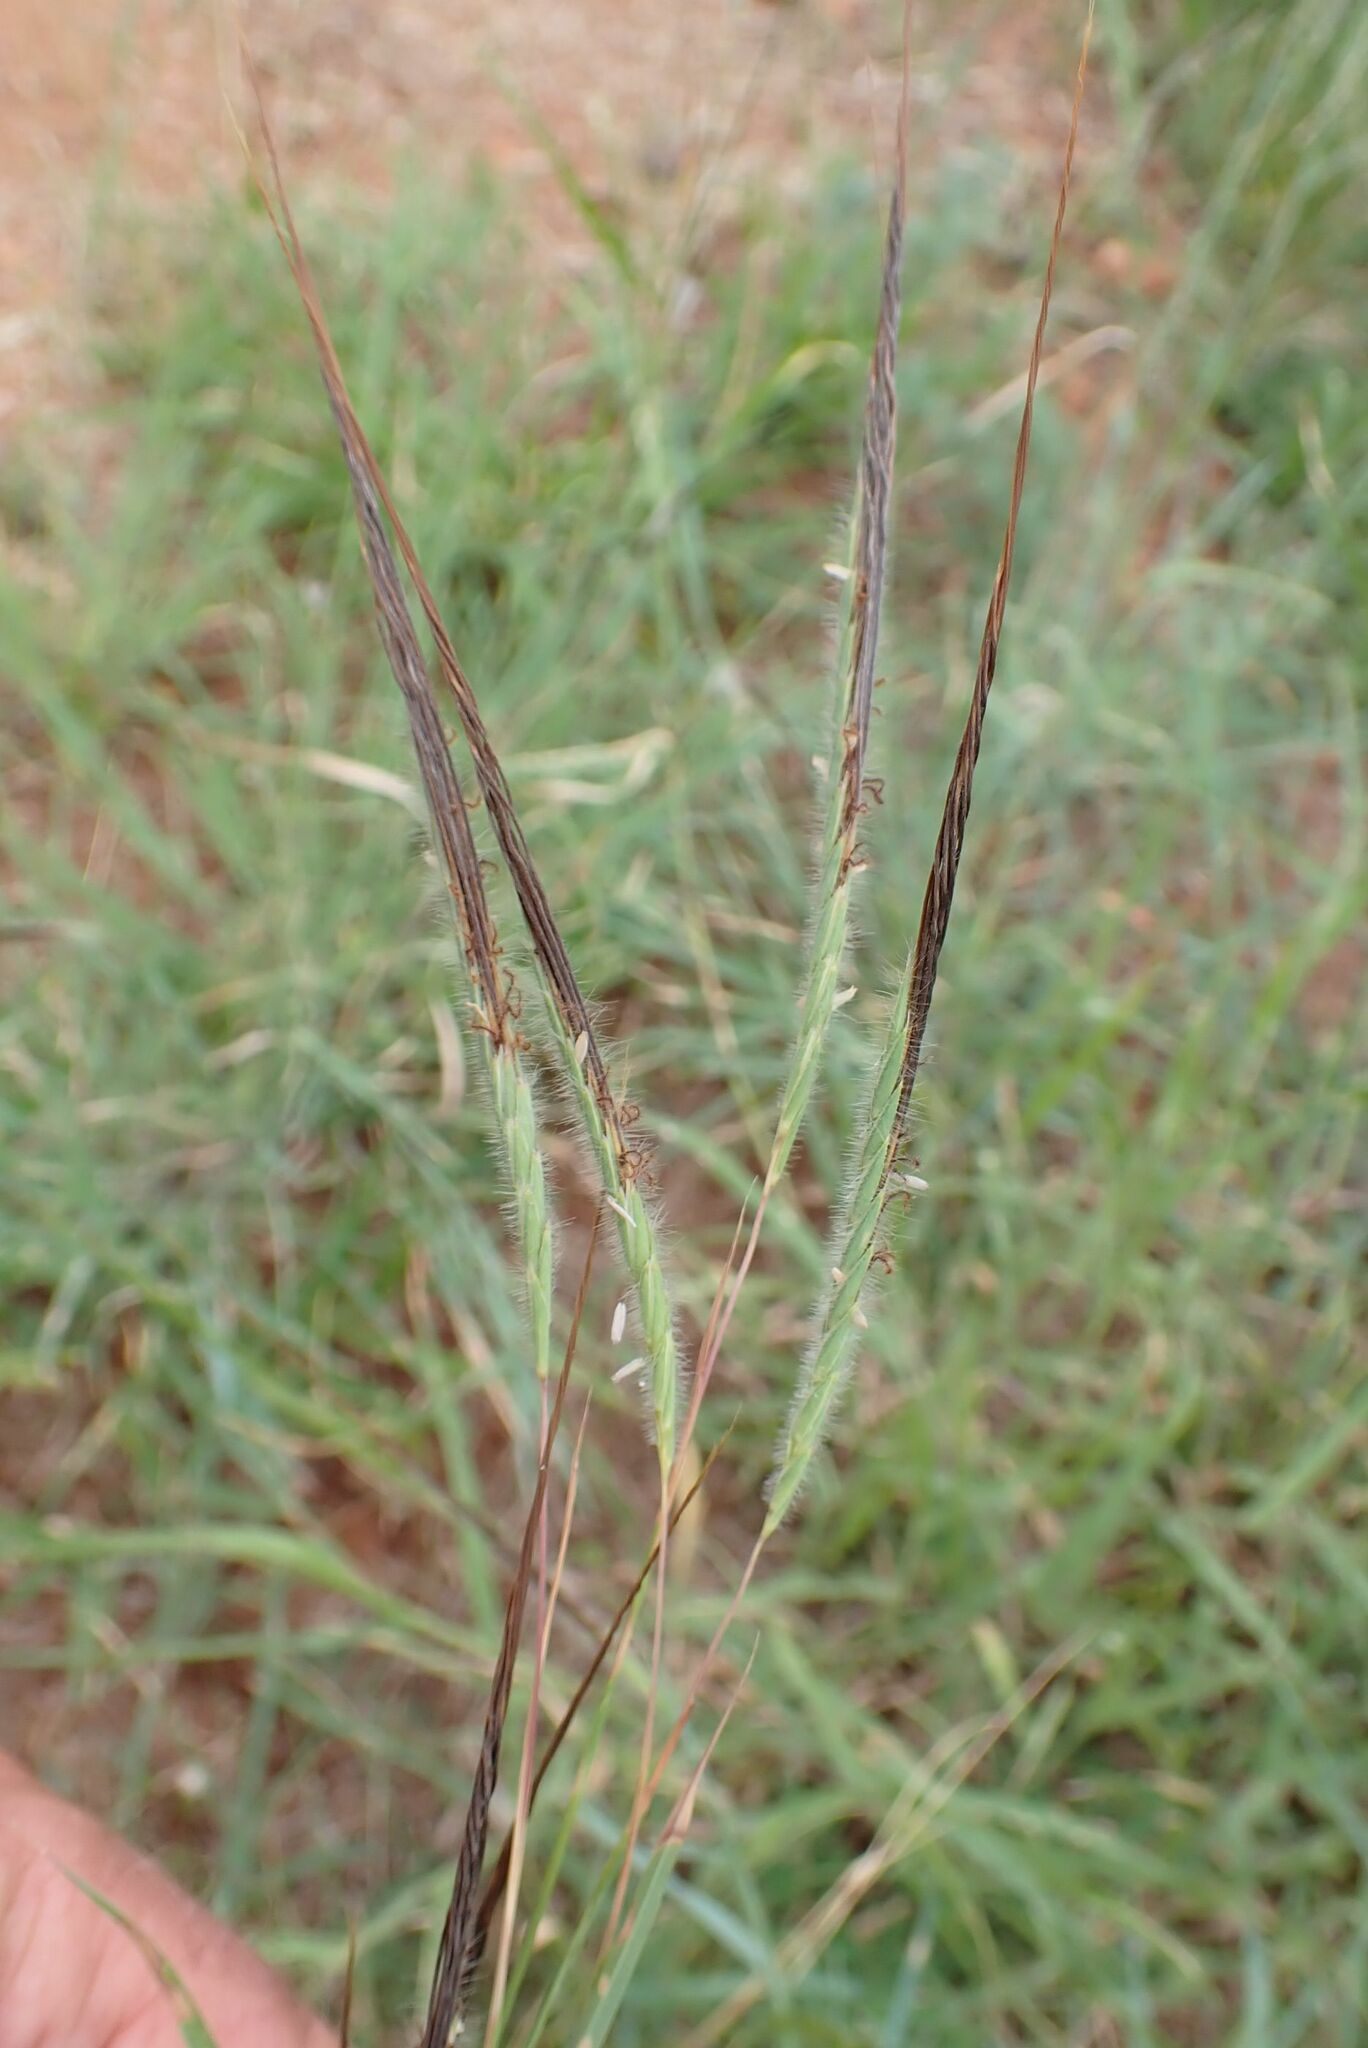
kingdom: Plantae
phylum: Tracheophyta
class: Liliopsida
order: Poales
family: Poaceae
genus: Heteropogon
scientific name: Heteropogon contortus
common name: Tanglehead
